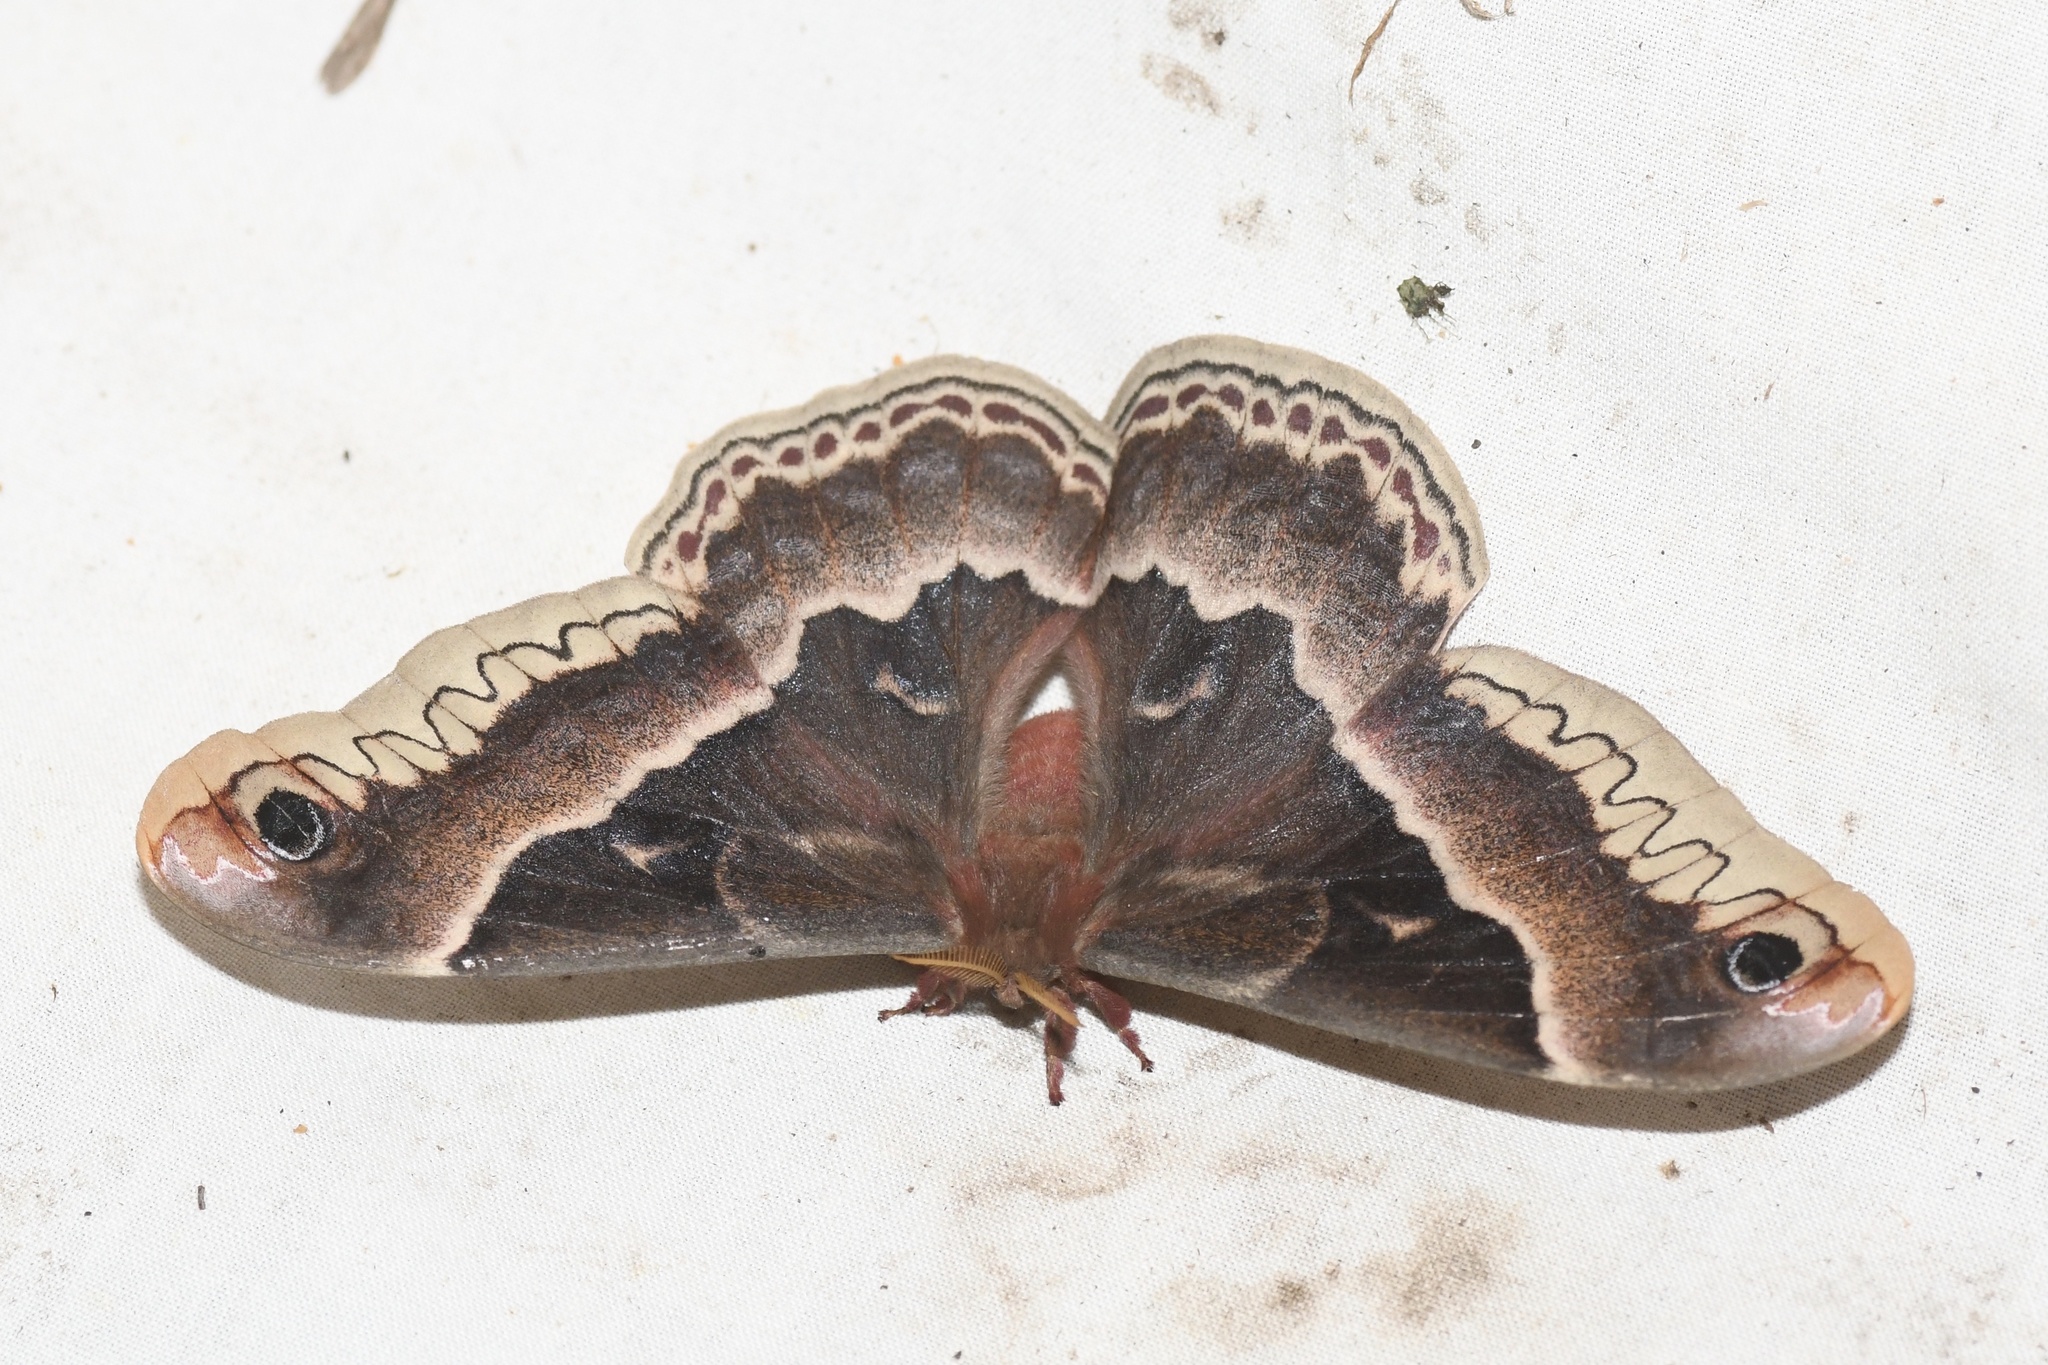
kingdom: Animalia
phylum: Arthropoda
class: Insecta
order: Lepidoptera
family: Saturniidae
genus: Callosamia
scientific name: Callosamia promethea
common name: Promethea silkmoth
